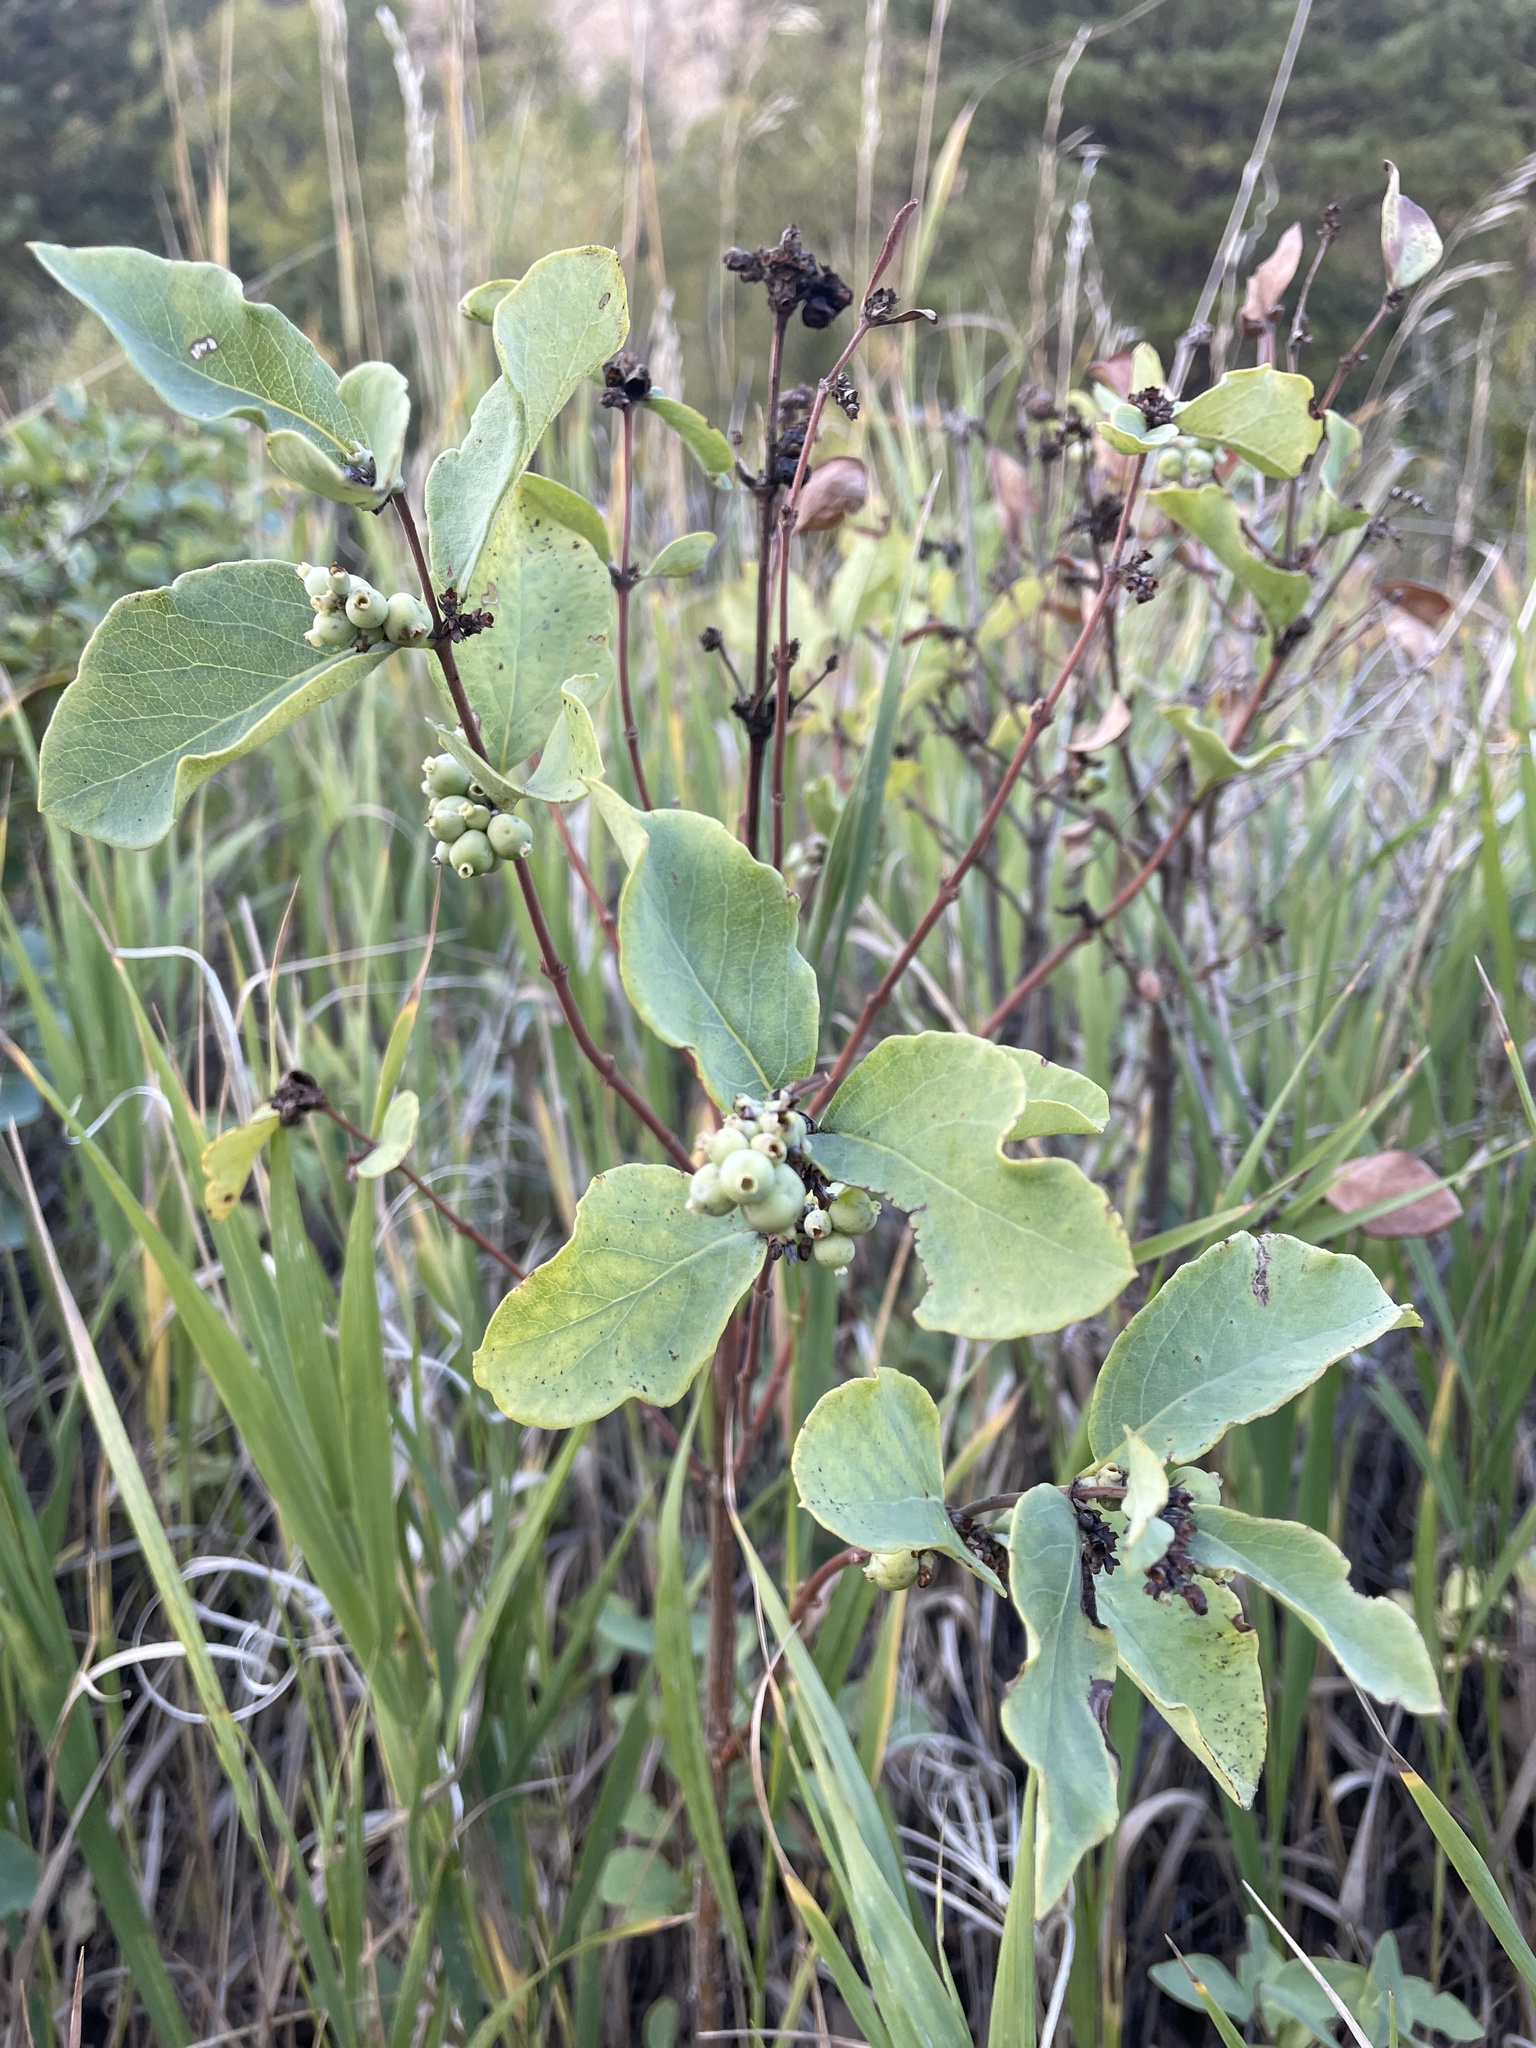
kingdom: Plantae
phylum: Tracheophyta
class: Magnoliopsida
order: Dipsacales
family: Caprifoliaceae
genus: Symphoricarpos
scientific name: Symphoricarpos occidentalis
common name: Wolfberry
